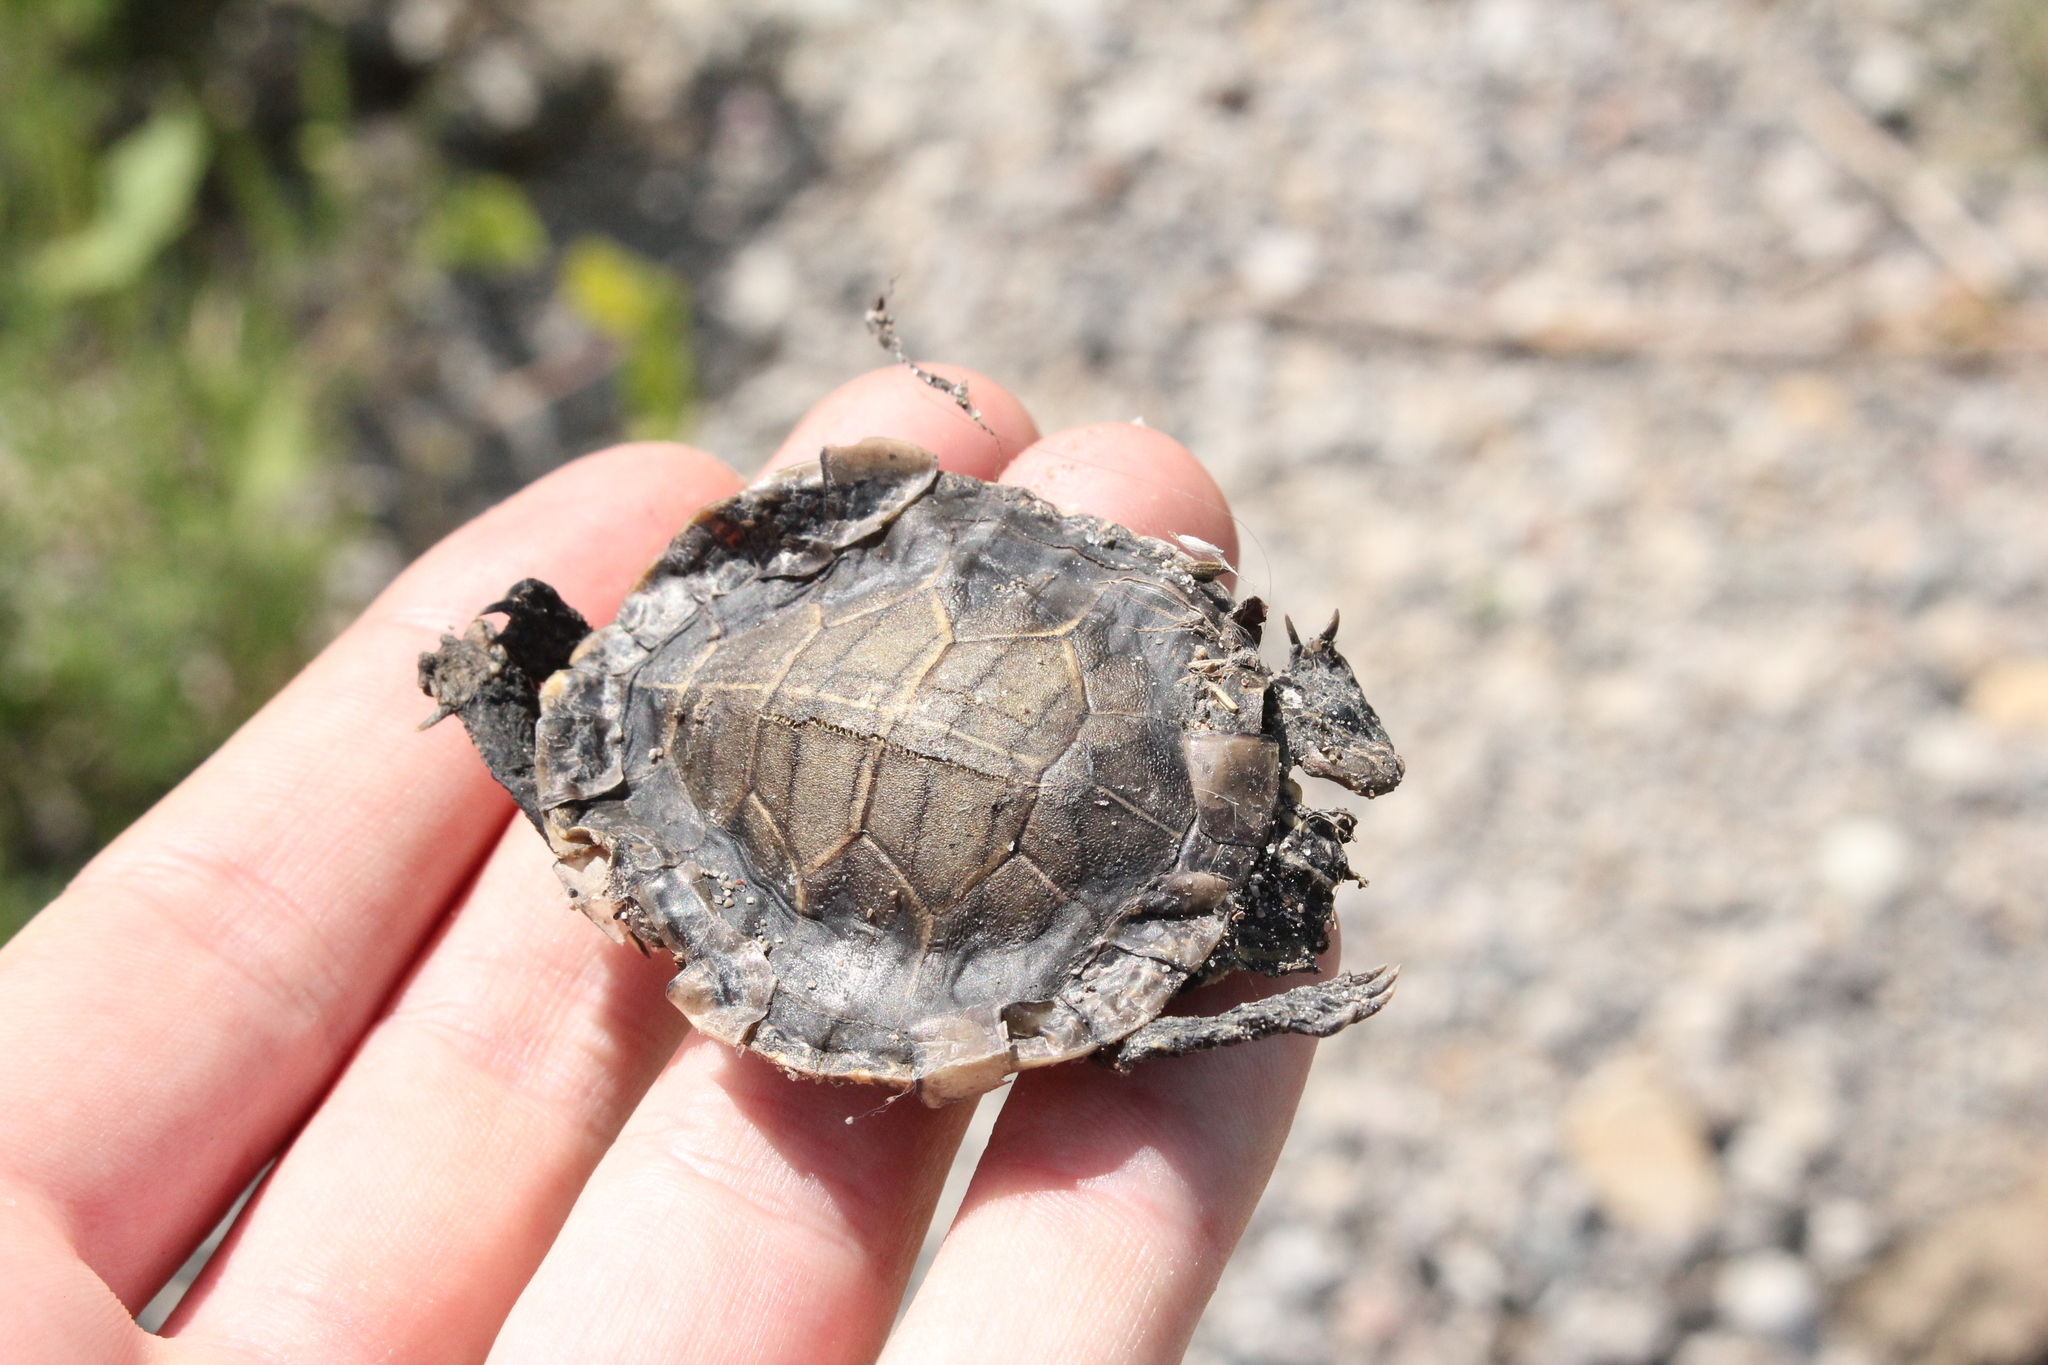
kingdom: Animalia
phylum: Chordata
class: Testudines
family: Emydidae
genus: Chrysemys
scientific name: Chrysemys picta
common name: Painted turtle
